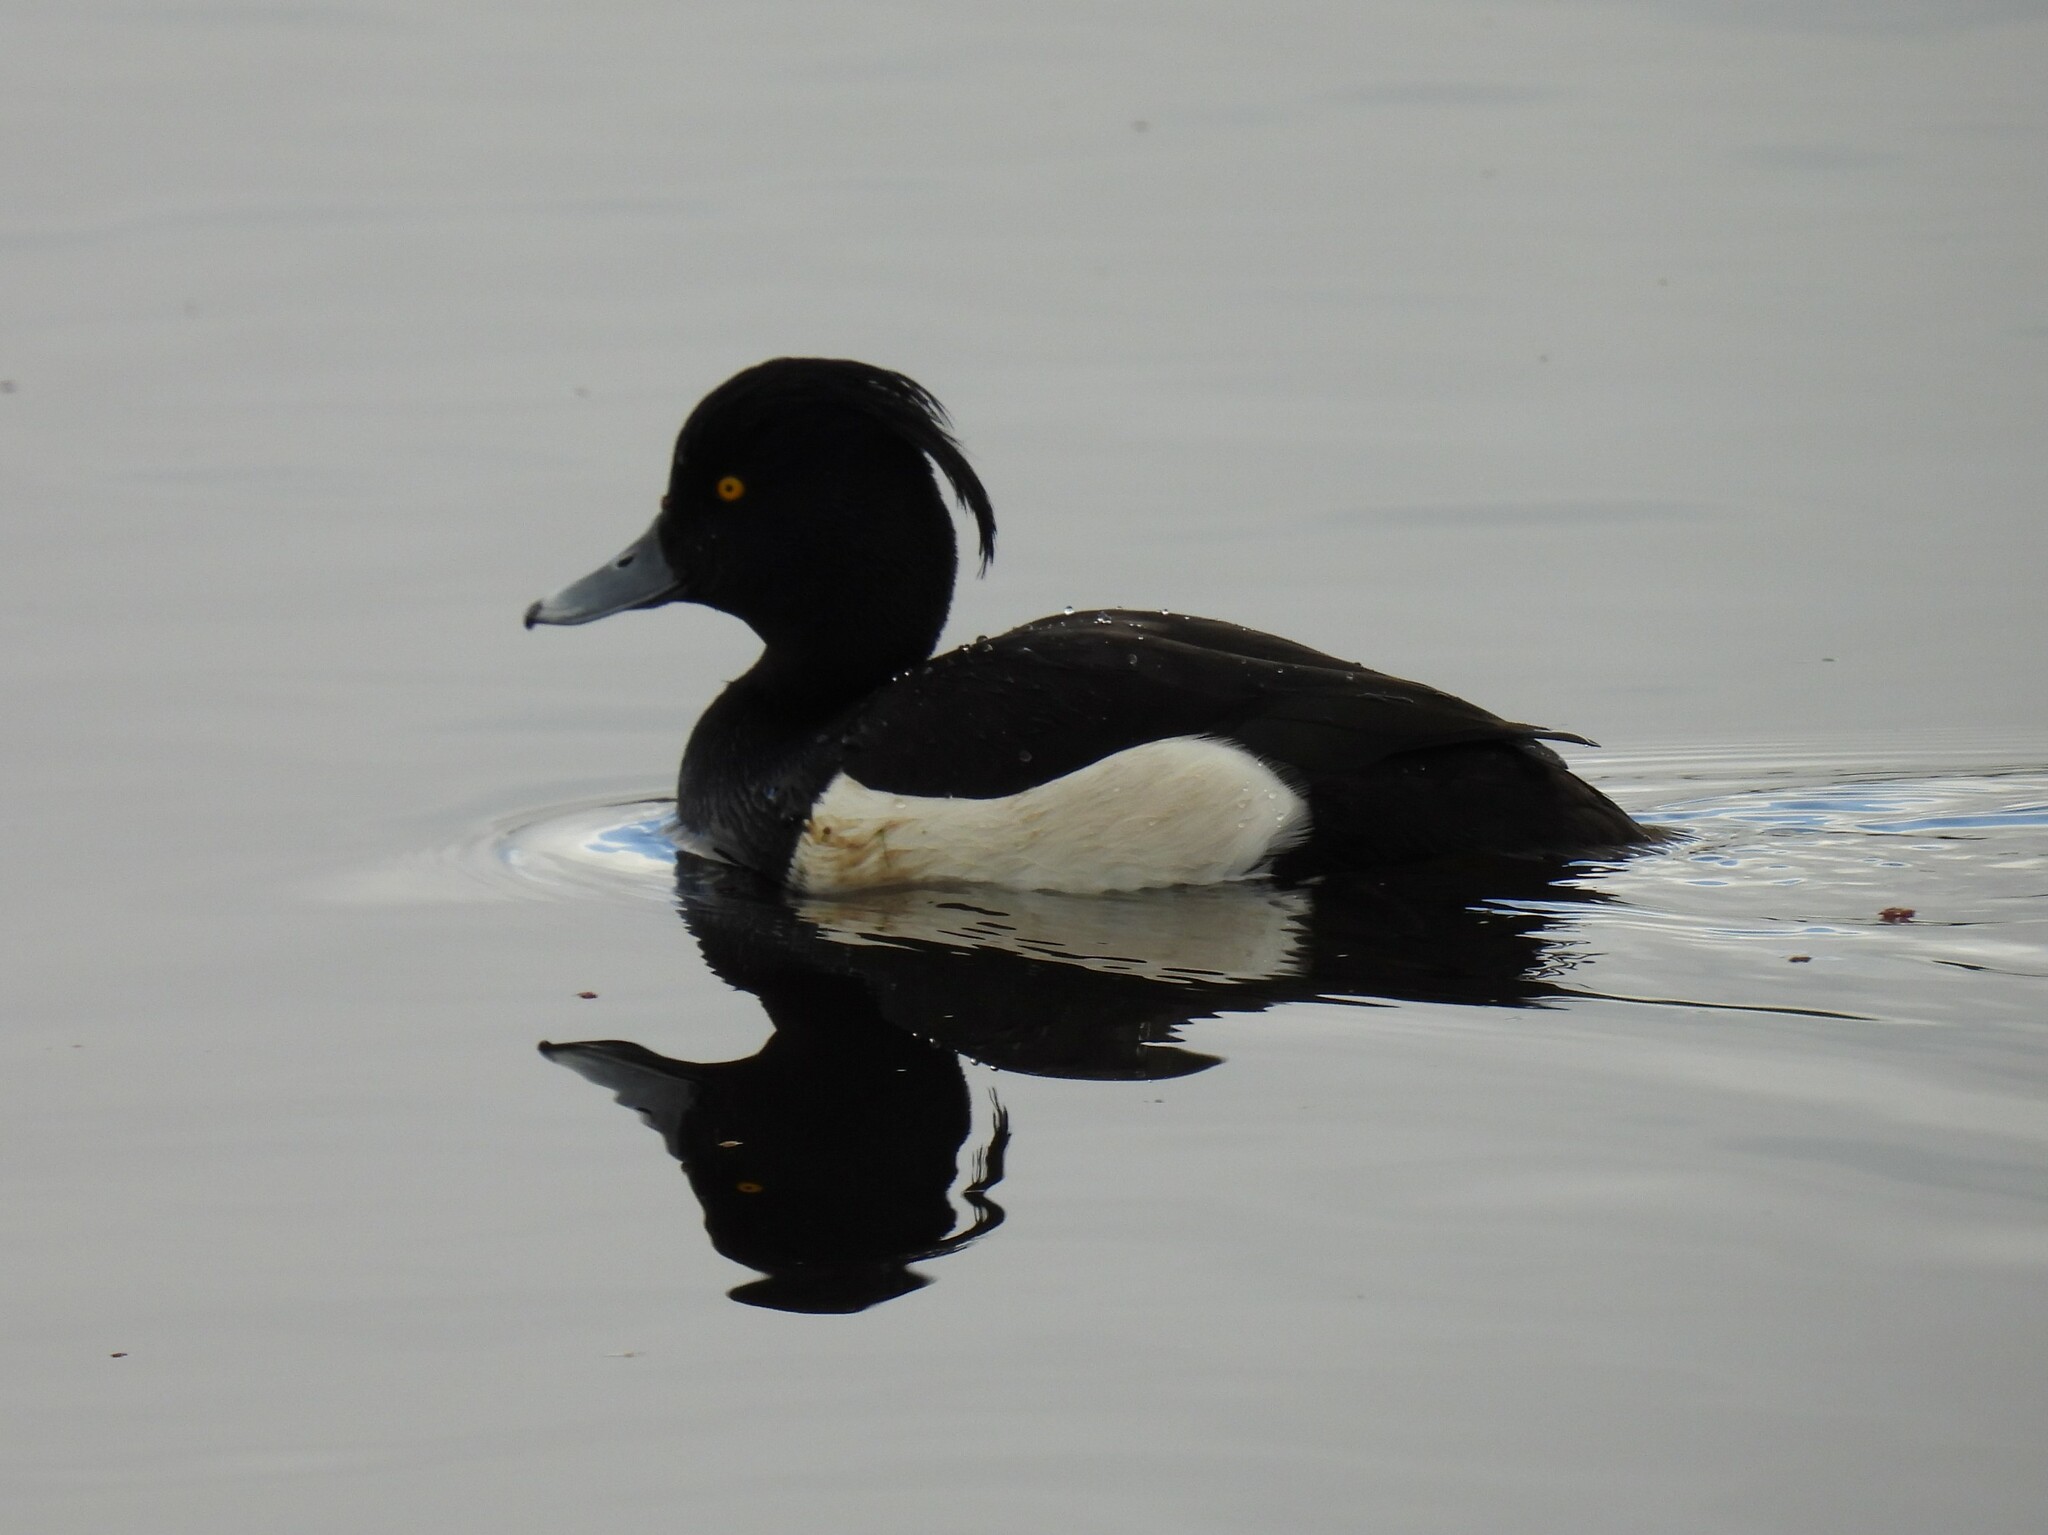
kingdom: Animalia
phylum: Chordata
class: Aves
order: Anseriformes
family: Anatidae
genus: Aythya
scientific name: Aythya fuligula
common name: Tufted duck
